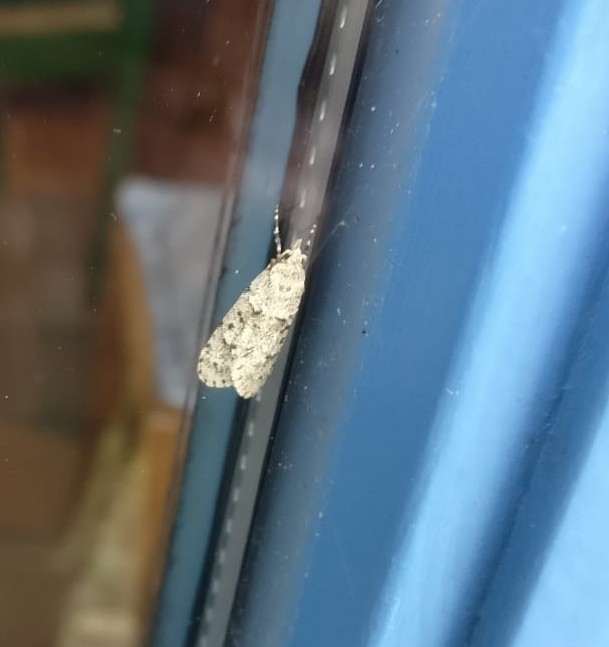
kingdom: Animalia
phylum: Arthropoda
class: Insecta
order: Lepidoptera
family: Lypusidae
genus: Diurnea
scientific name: Diurnea fagella
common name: March tubic
